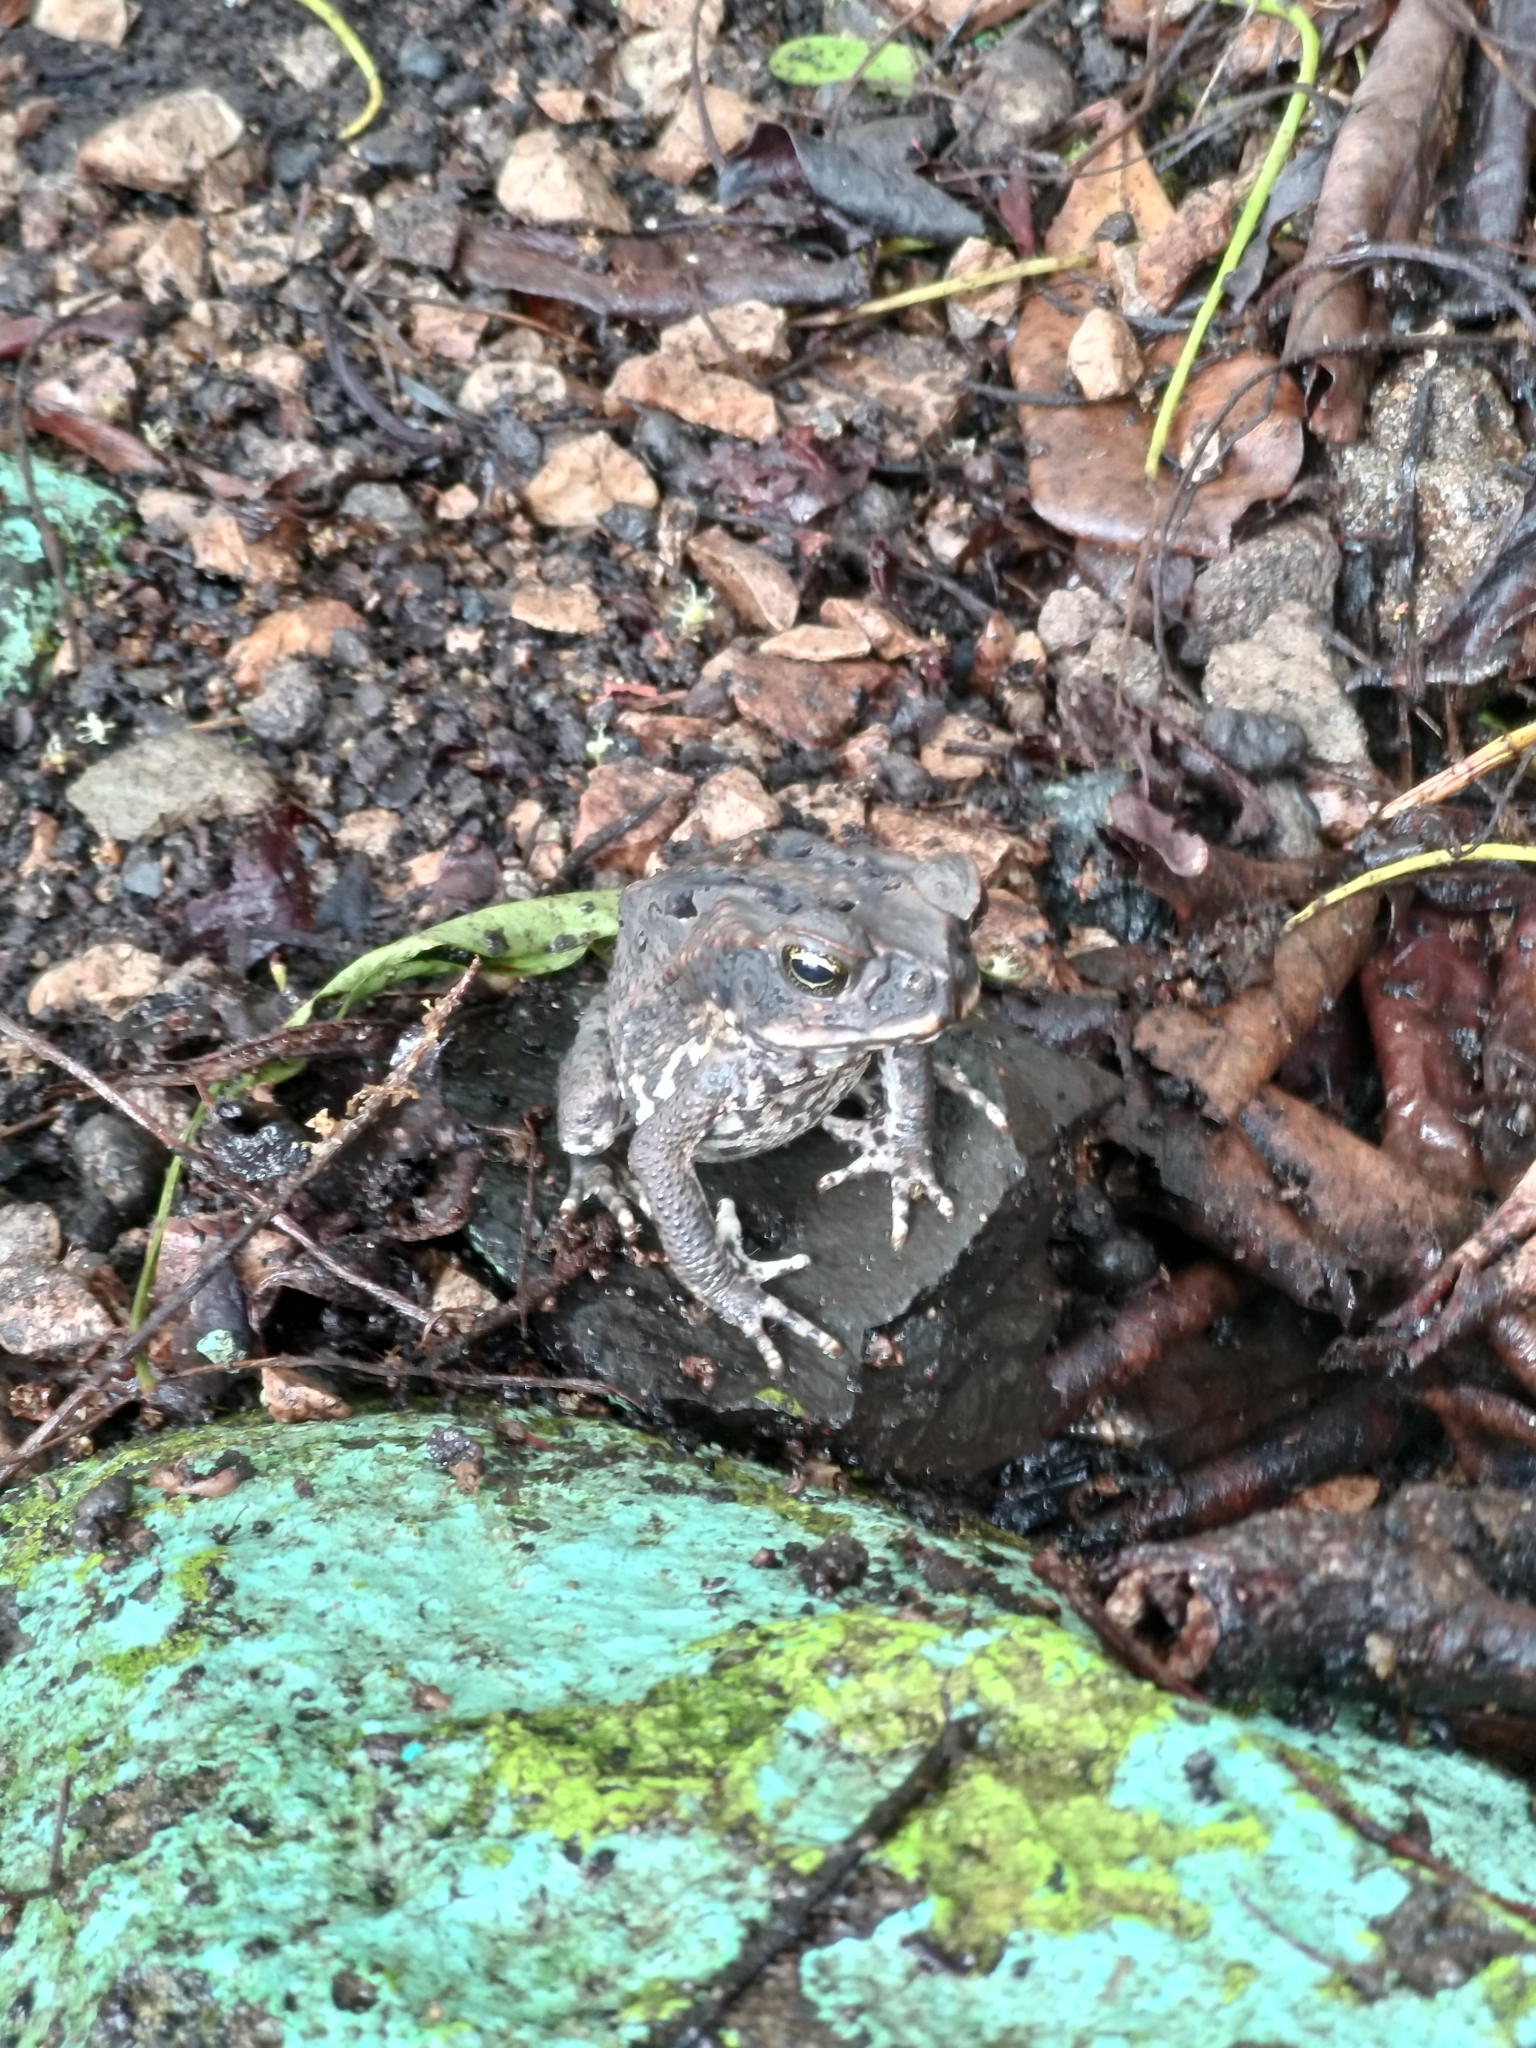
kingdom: Animalia
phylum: Chordata
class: Amphibia
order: Anura
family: Bufonidae
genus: Rhinella
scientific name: Rhinella marina
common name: Cane toad
